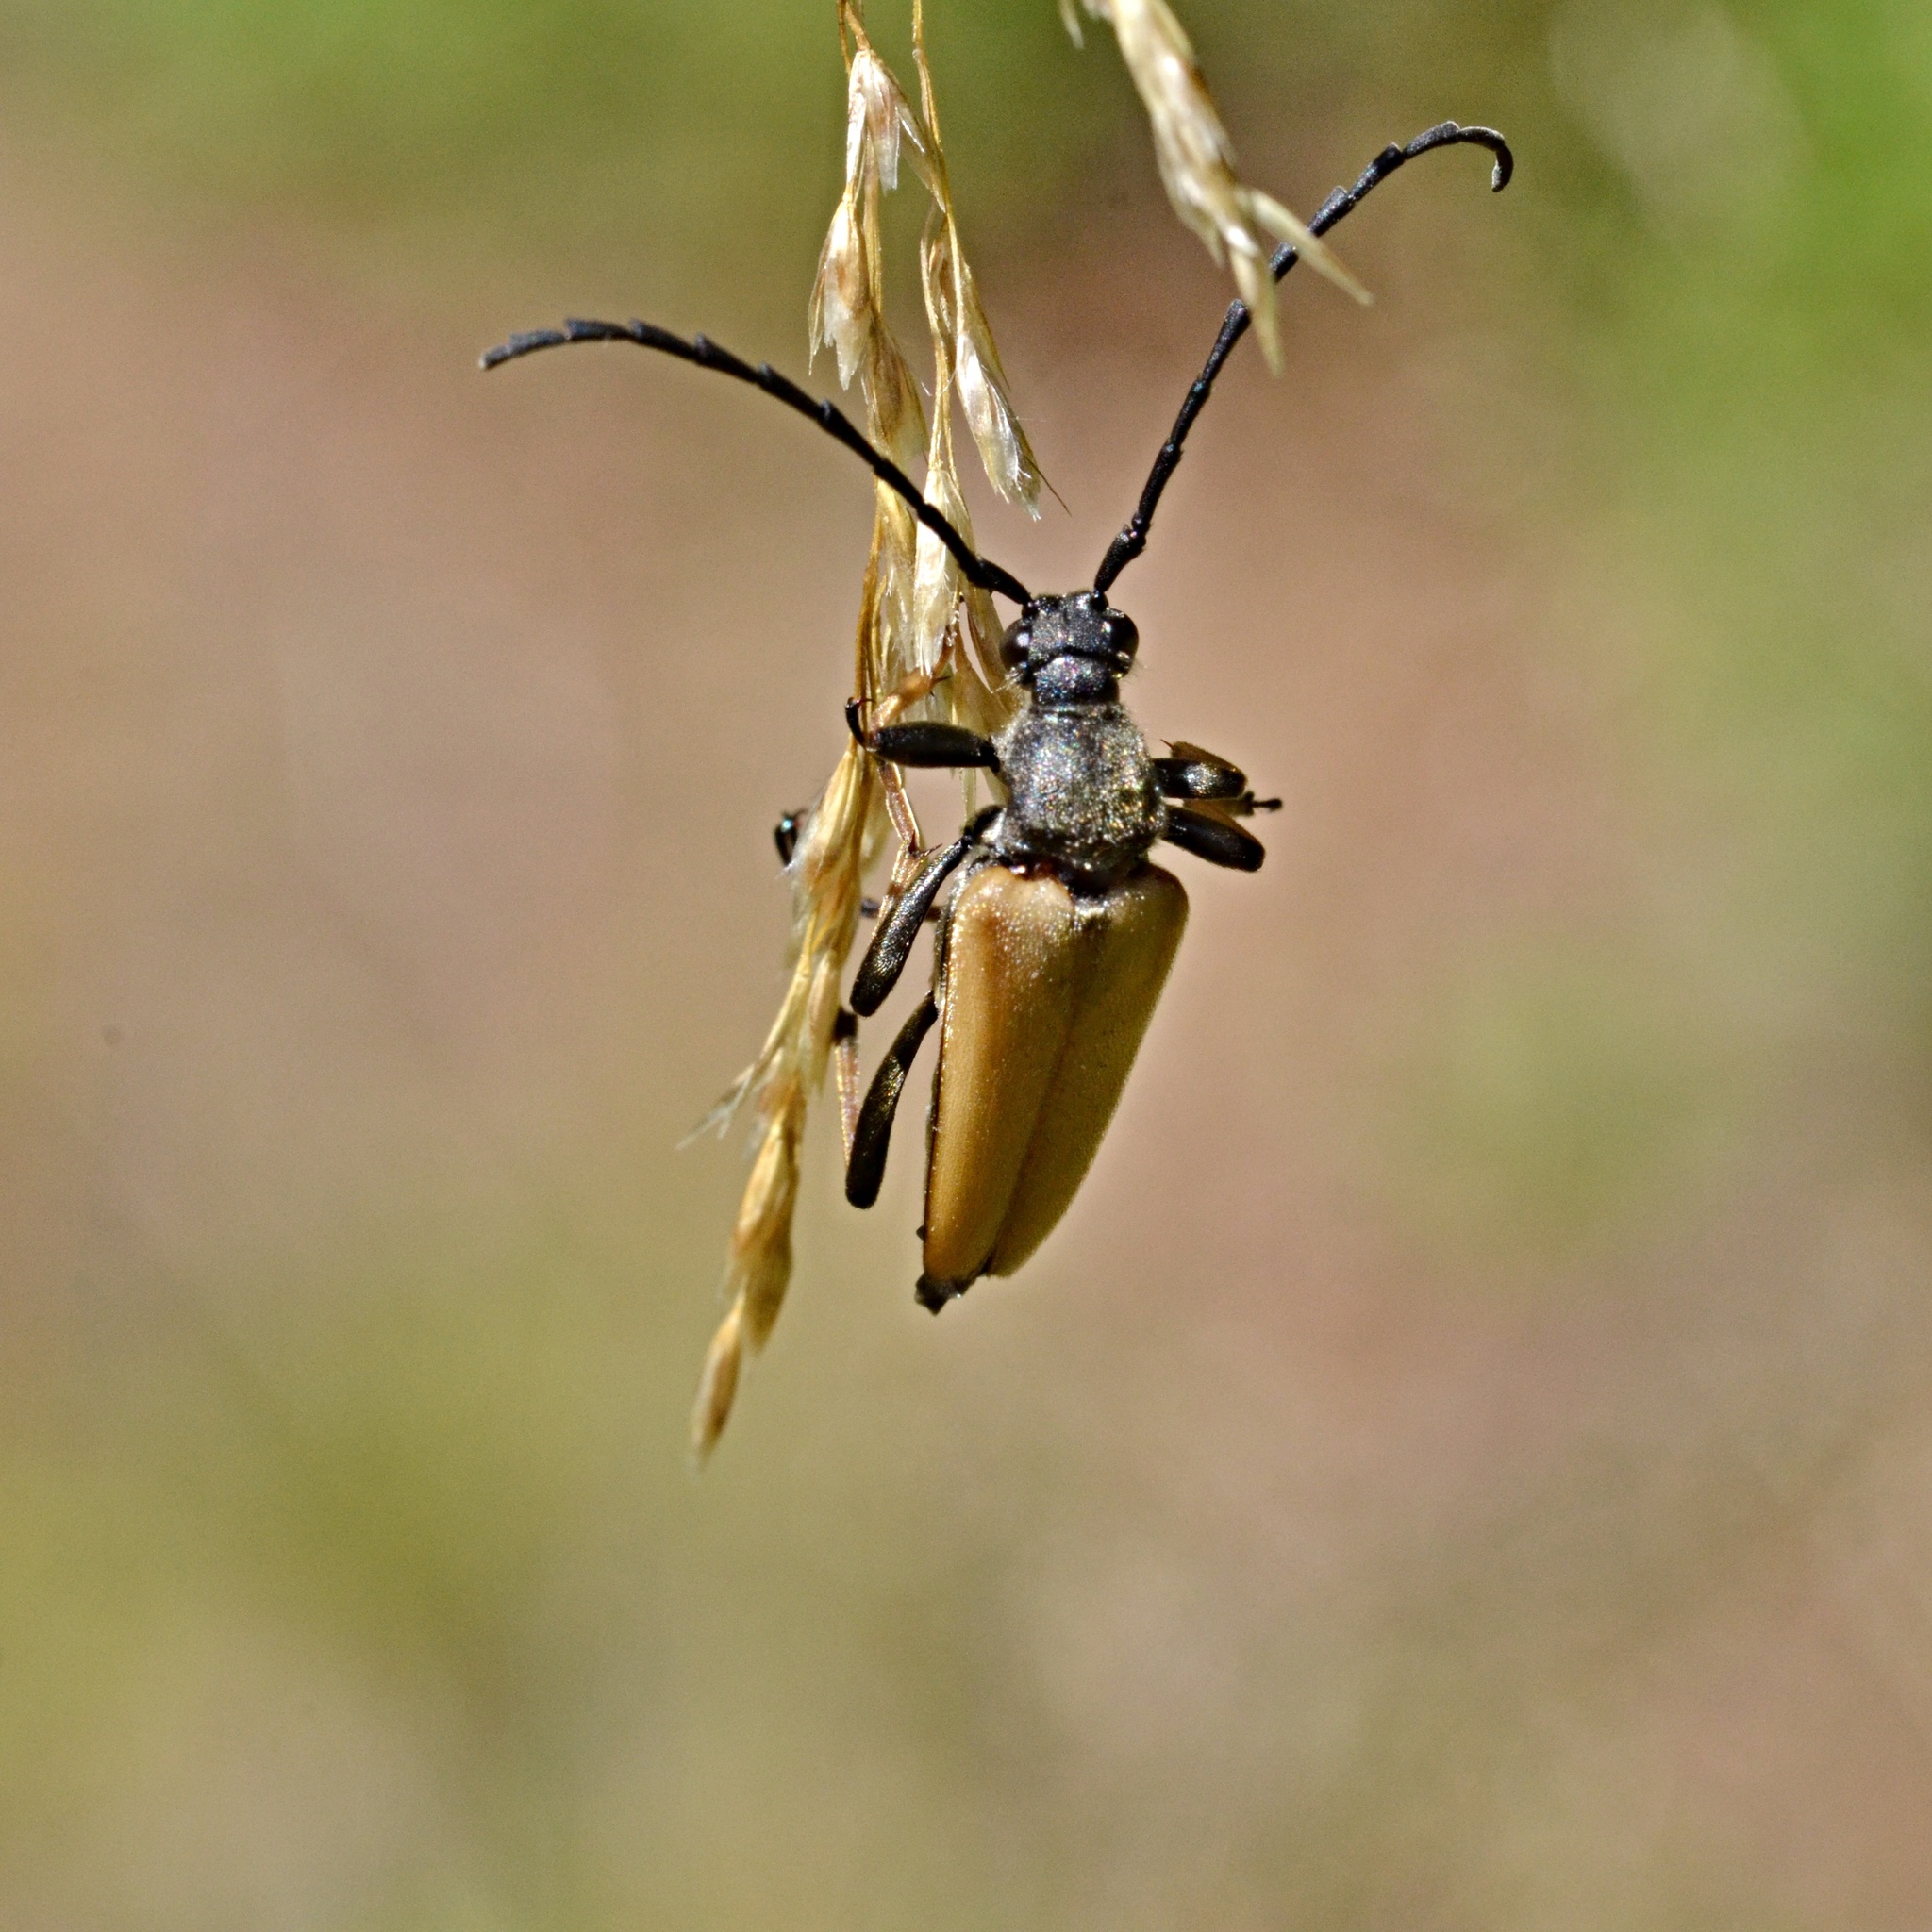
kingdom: Animalia
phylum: Arthropoda
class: Insecta
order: Coleoptera
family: Cerambycidae
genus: Stictoleptura
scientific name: Stictoleptura rubra
